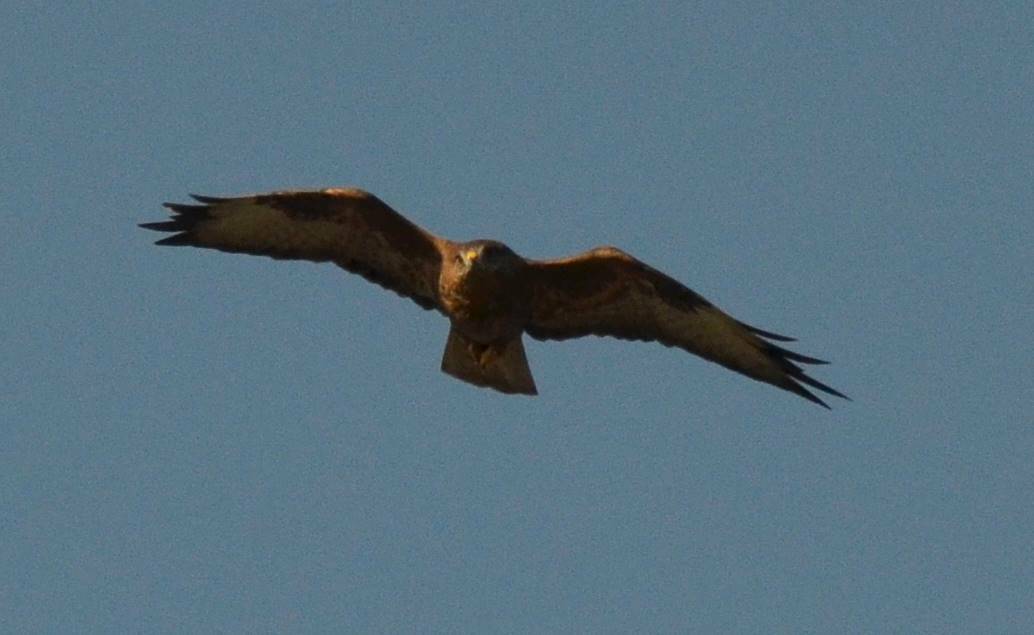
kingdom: Animalia
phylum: Chordata
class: Aves
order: Accipitriformes
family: Accipitridae
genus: Buteo
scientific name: Buteo rufinus
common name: Long-legged buzzard
